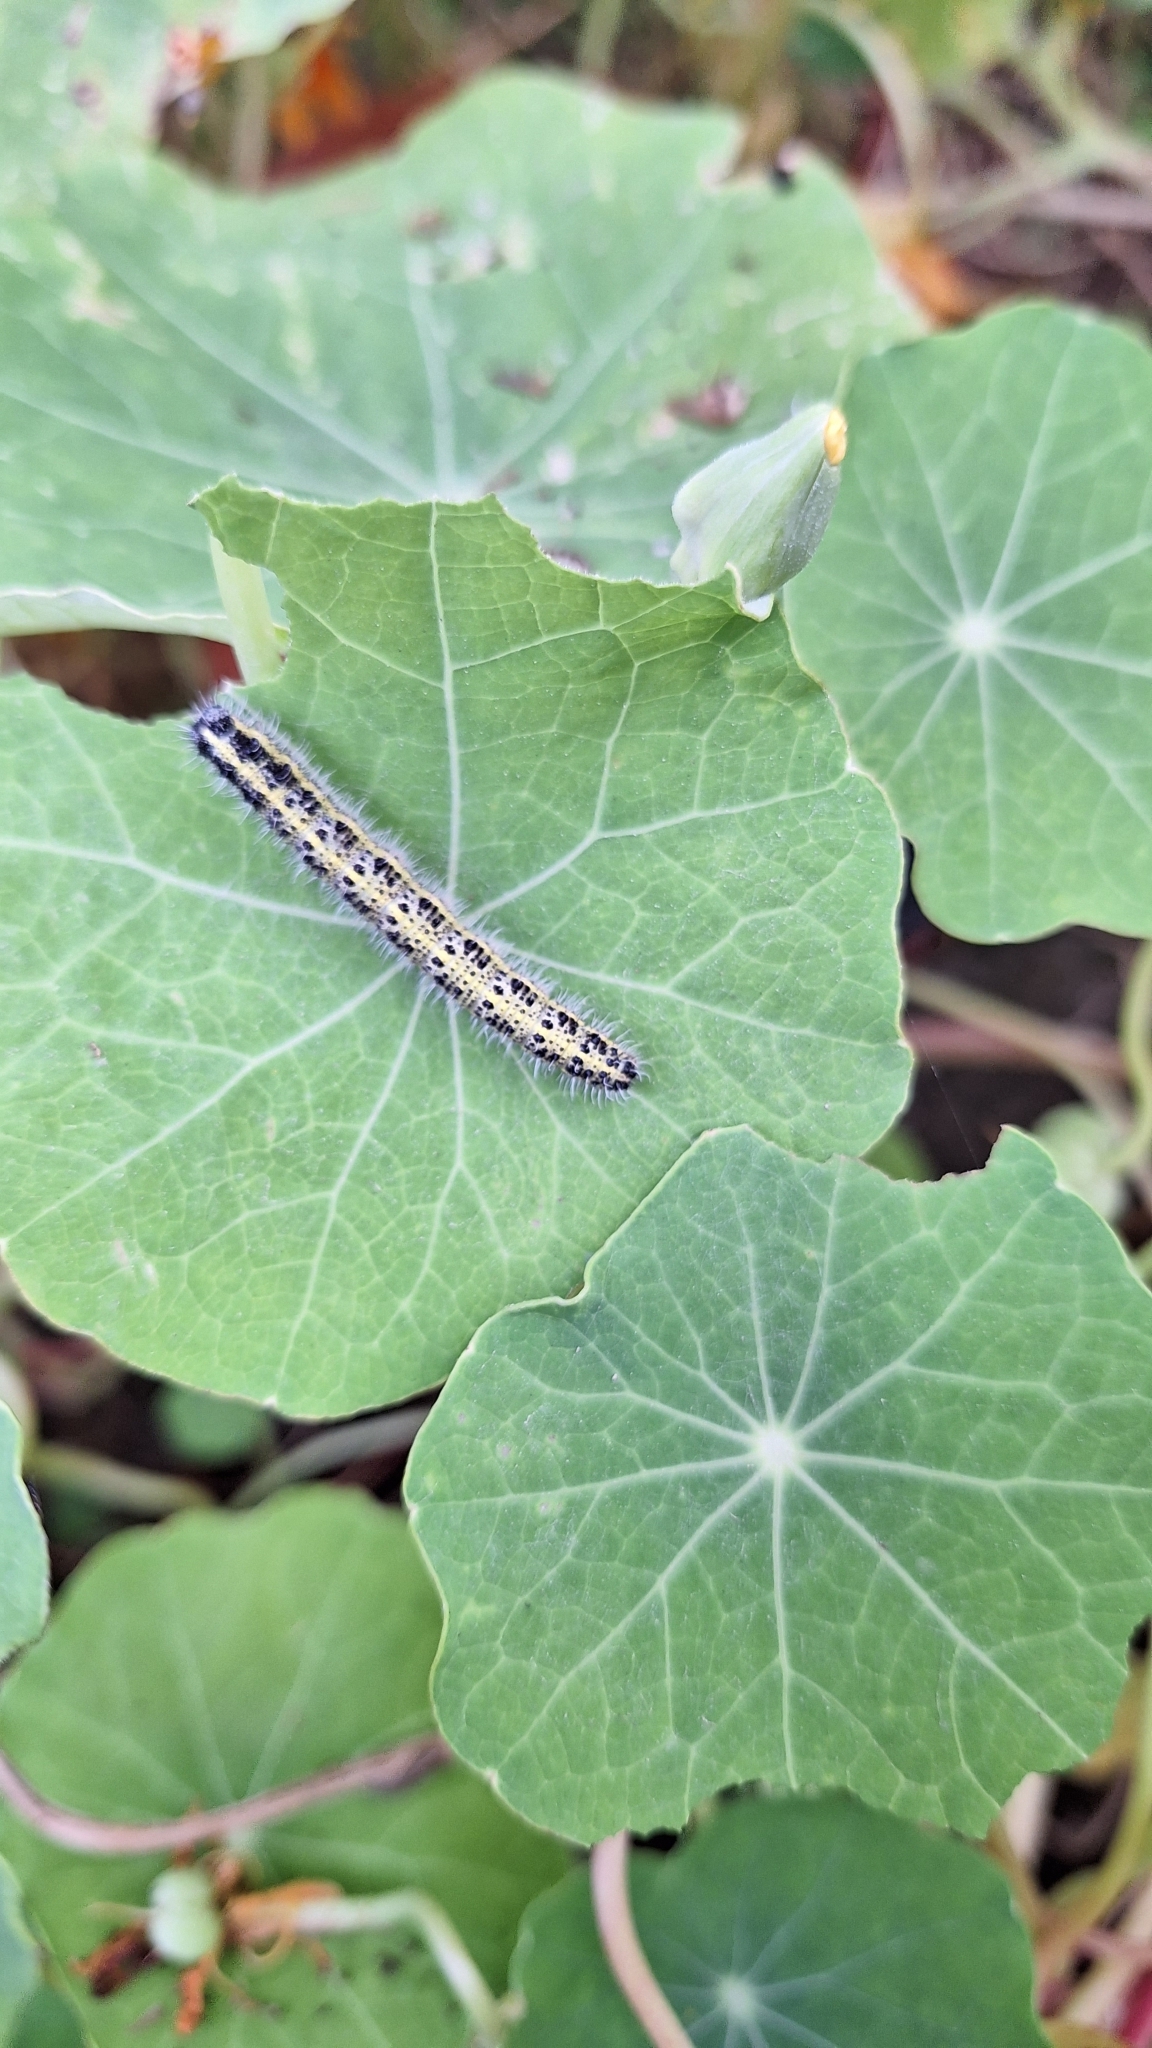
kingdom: Animalia
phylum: Arthropoda
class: Insecta
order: Lepidoptera
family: Pieridae
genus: Pieris
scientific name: Pieris brassicae
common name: Large white
